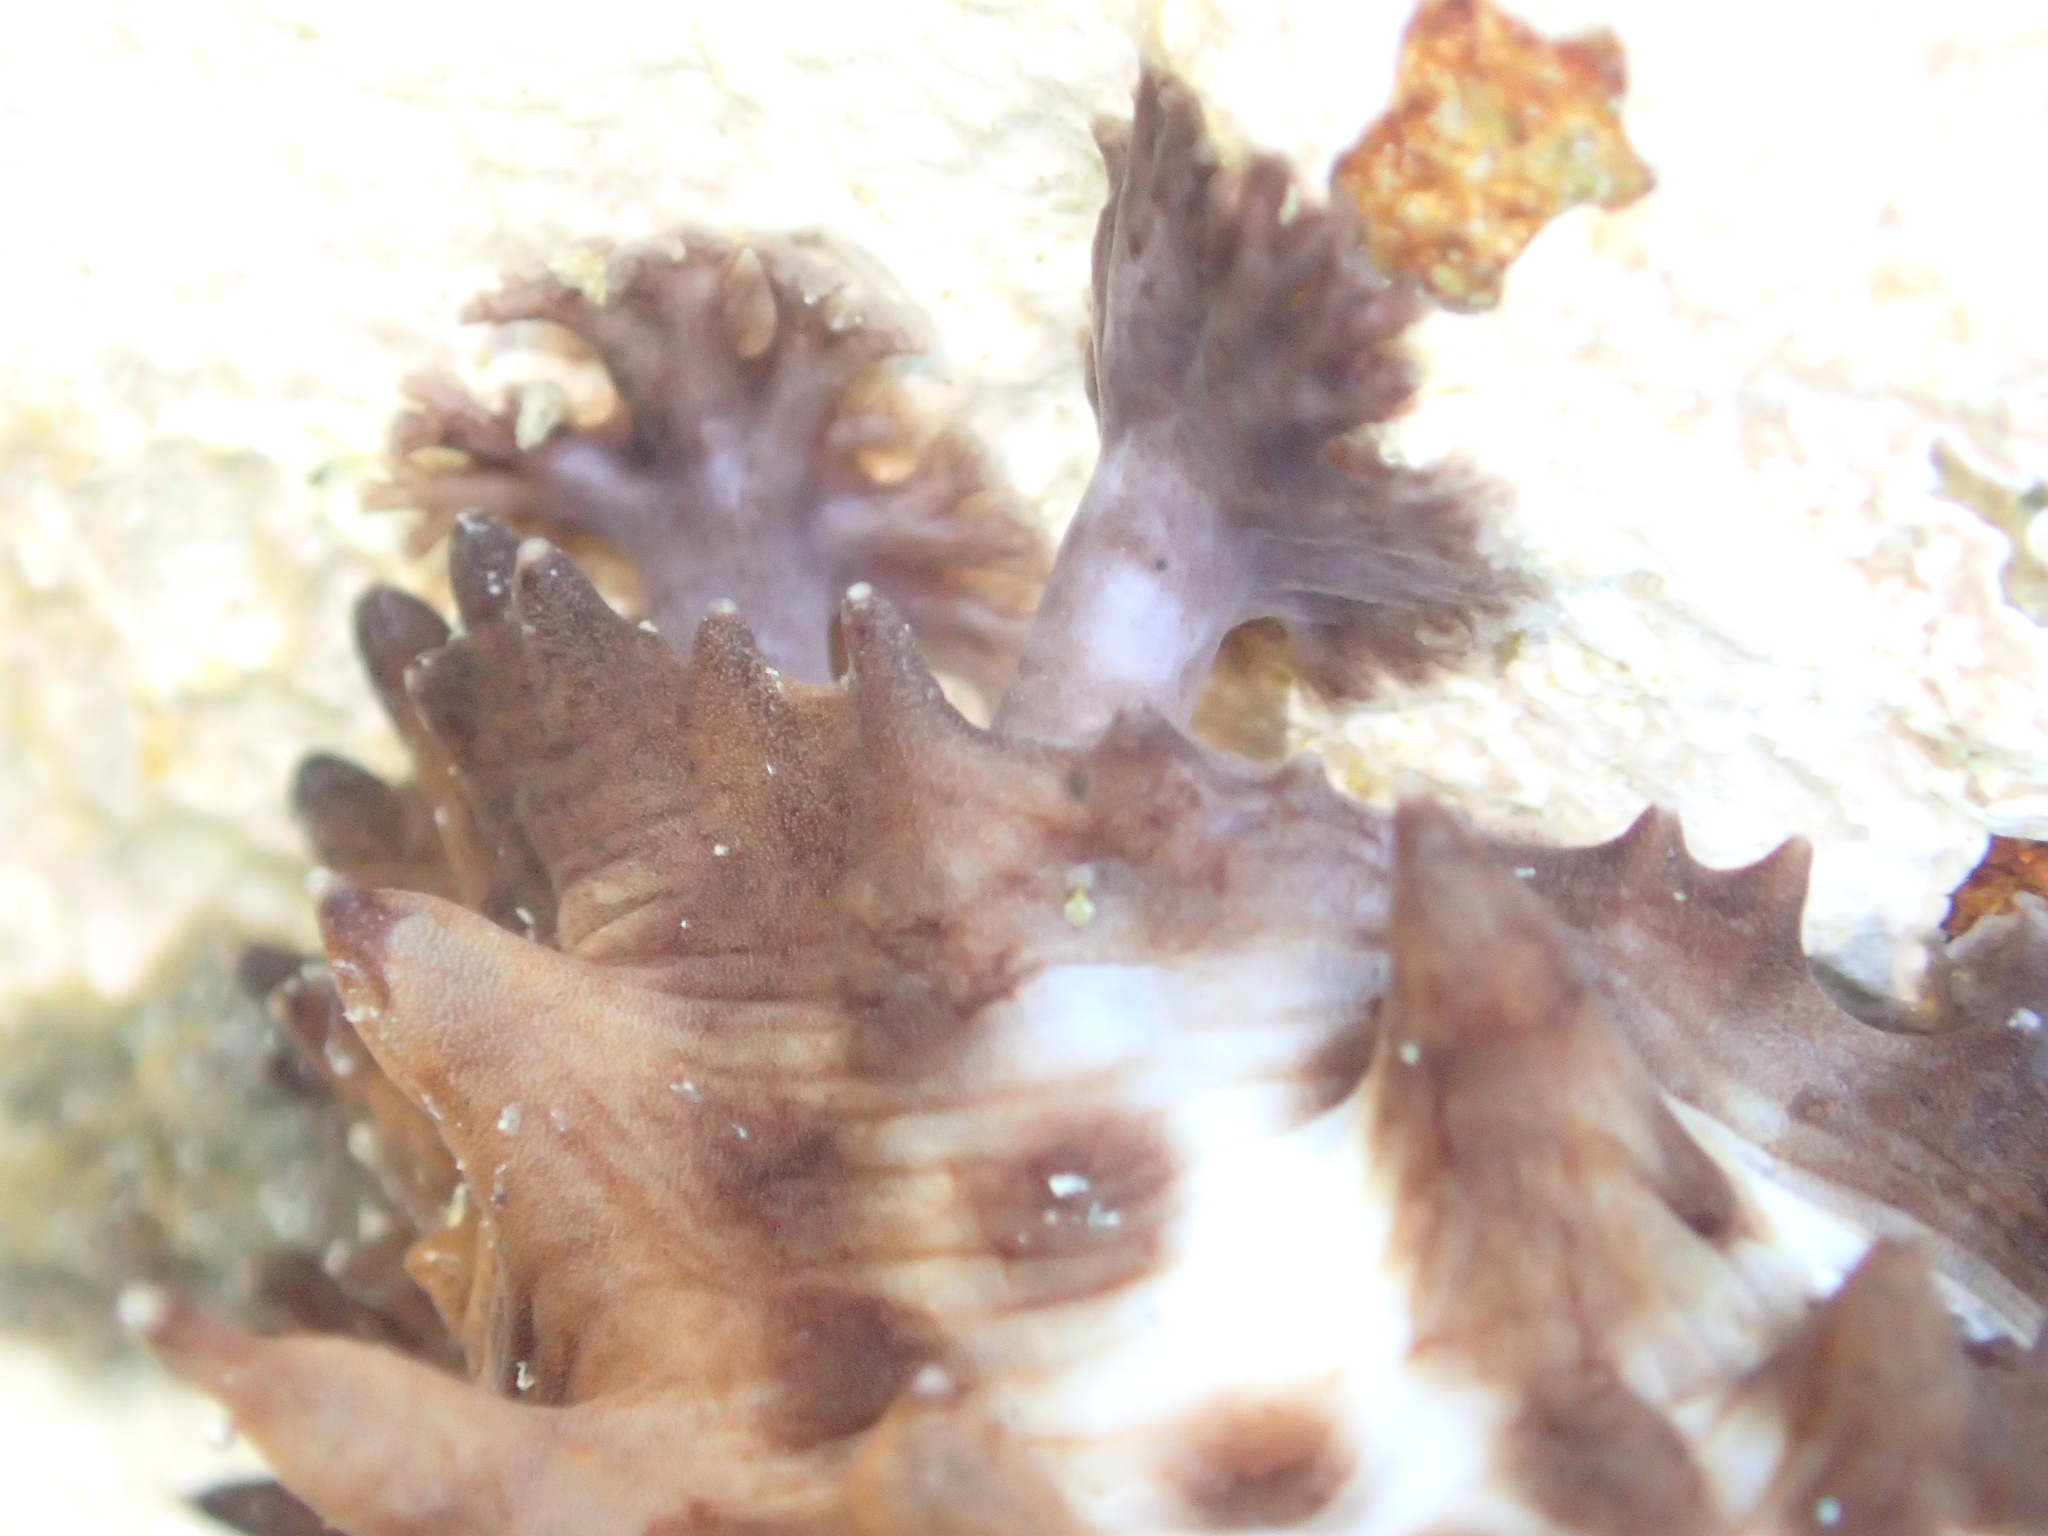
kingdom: Animalia
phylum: Echinodermata
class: Holothuroidea
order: Synallactida
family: Stichopodidae
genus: Australostichopus
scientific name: Australostichopus mollis
